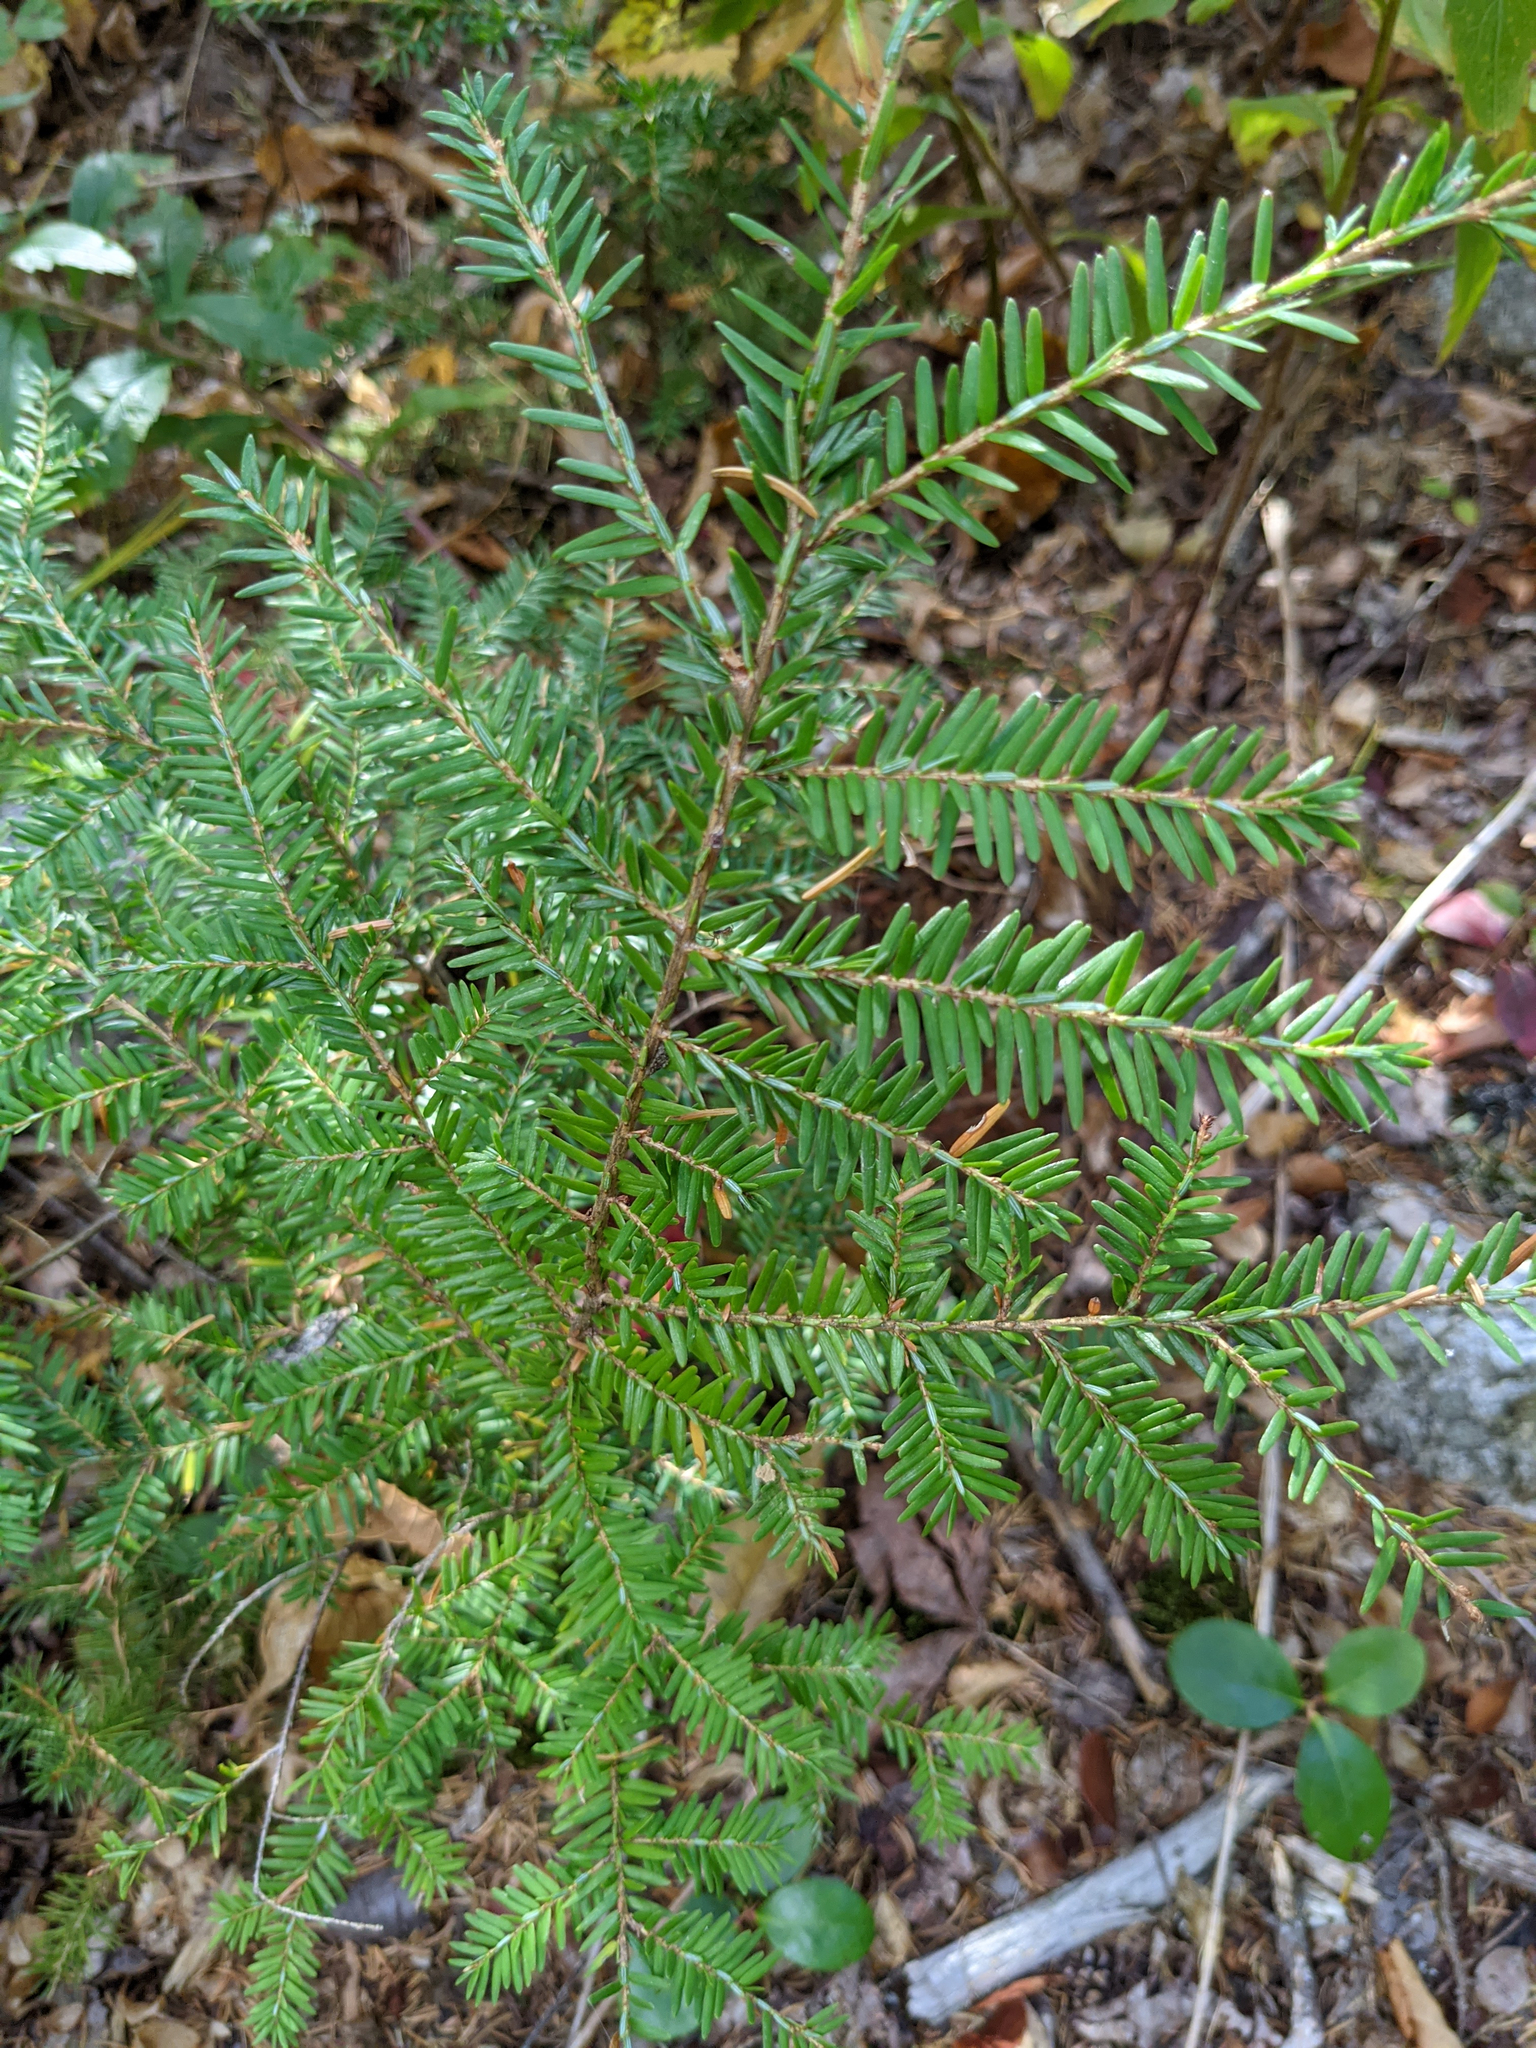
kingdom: Plantae
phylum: Tracheophyta
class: Pinopsida
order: Pinales
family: Pinaceae
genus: Tsuga
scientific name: Tsuga canadensis
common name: Eastern hemlock
